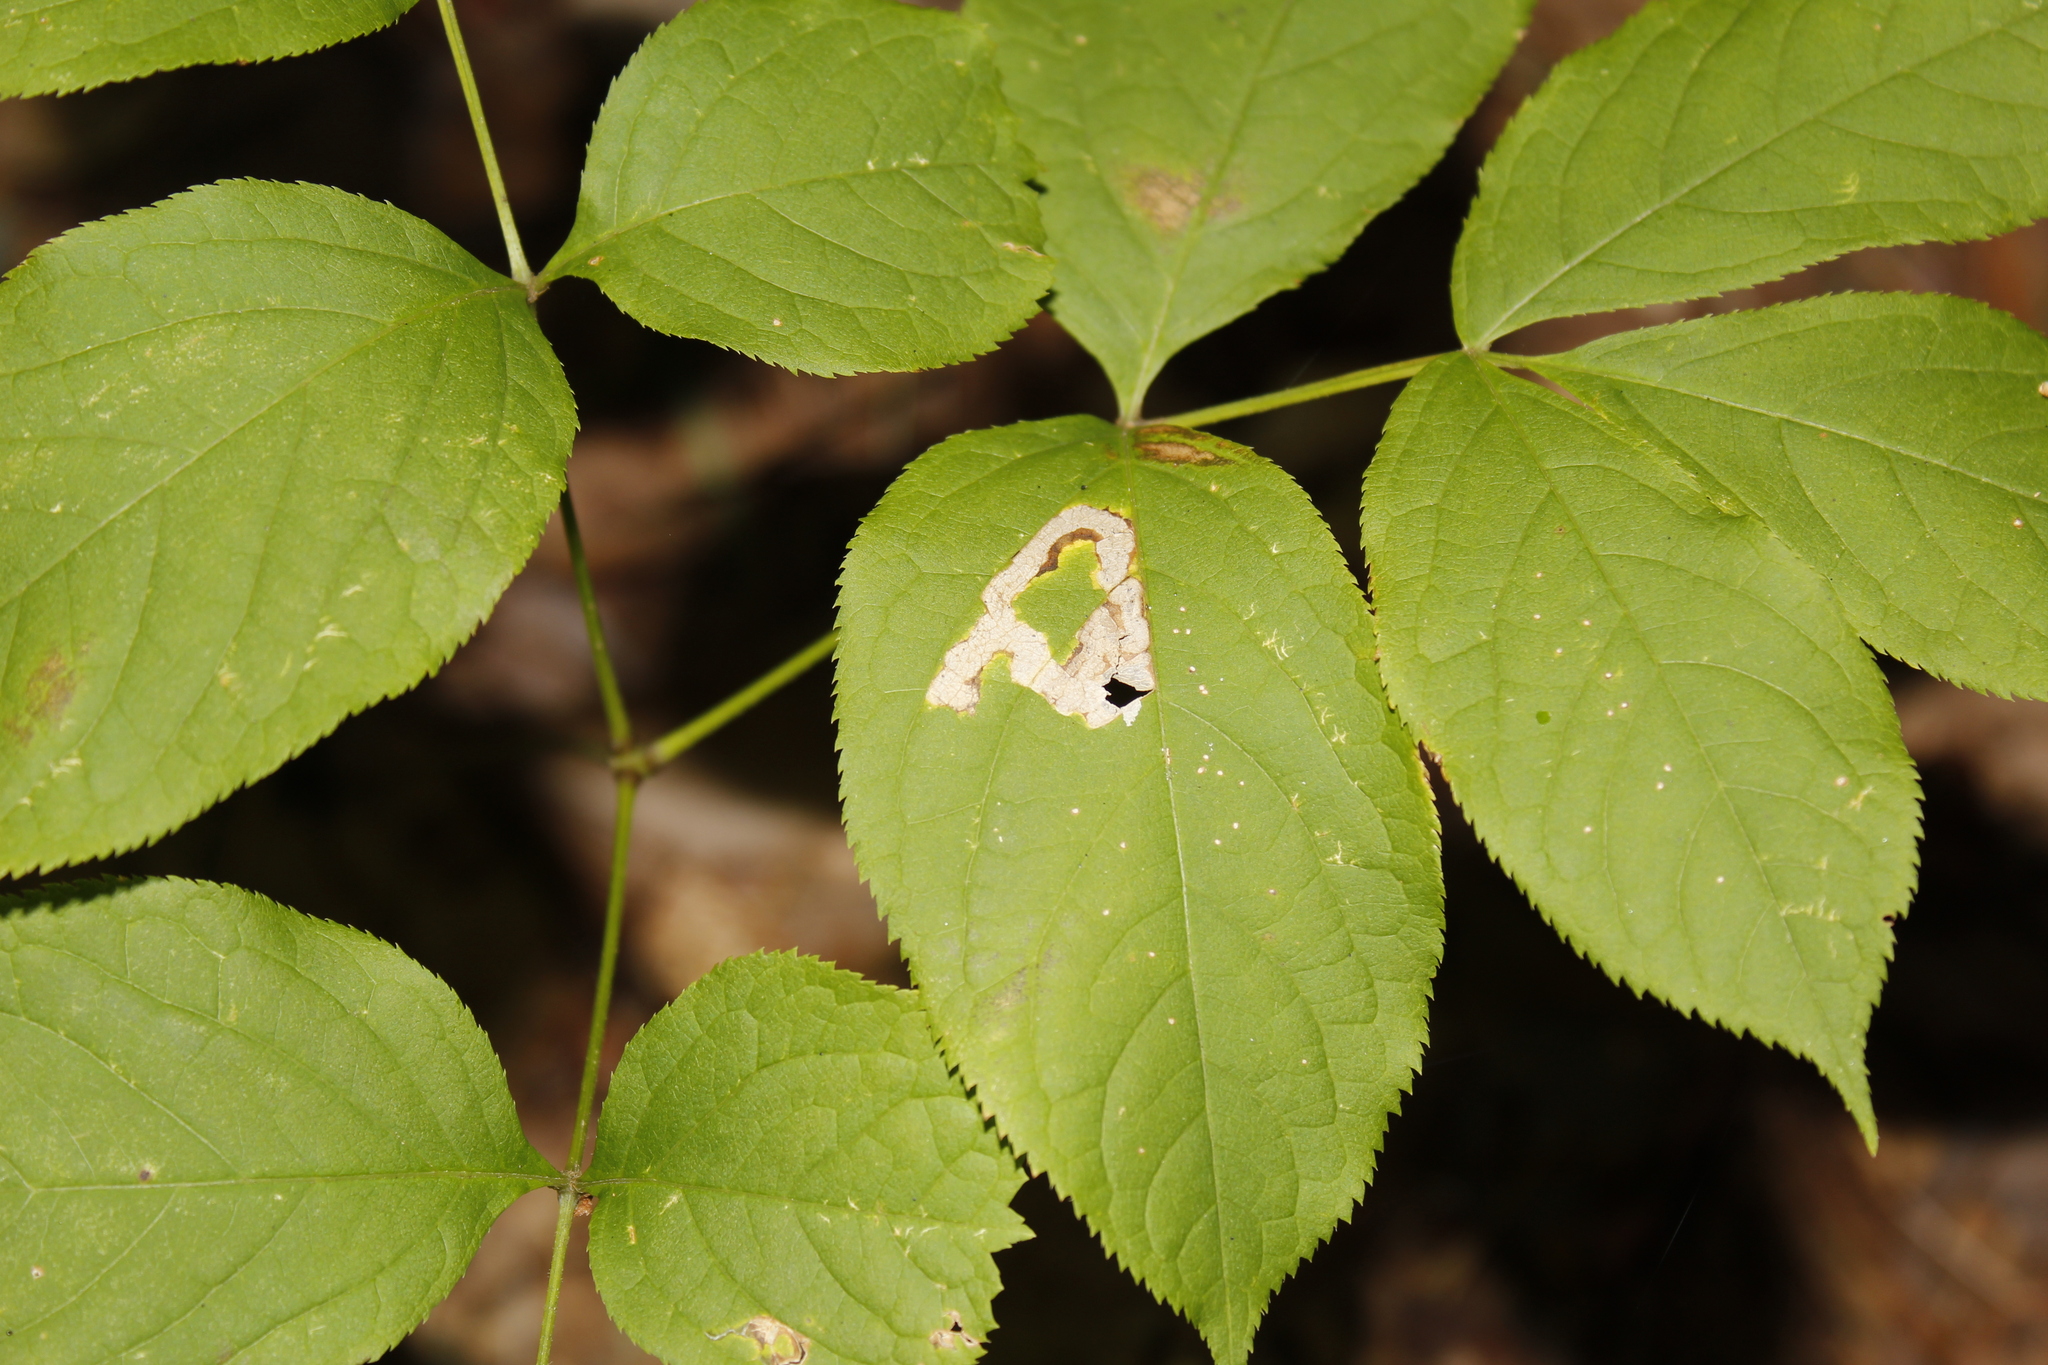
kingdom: Animalia
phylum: Arthropoda
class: Insecta
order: Diptera
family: Agromyzidae
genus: Phytomyza
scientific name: Phytomyza aralivora
